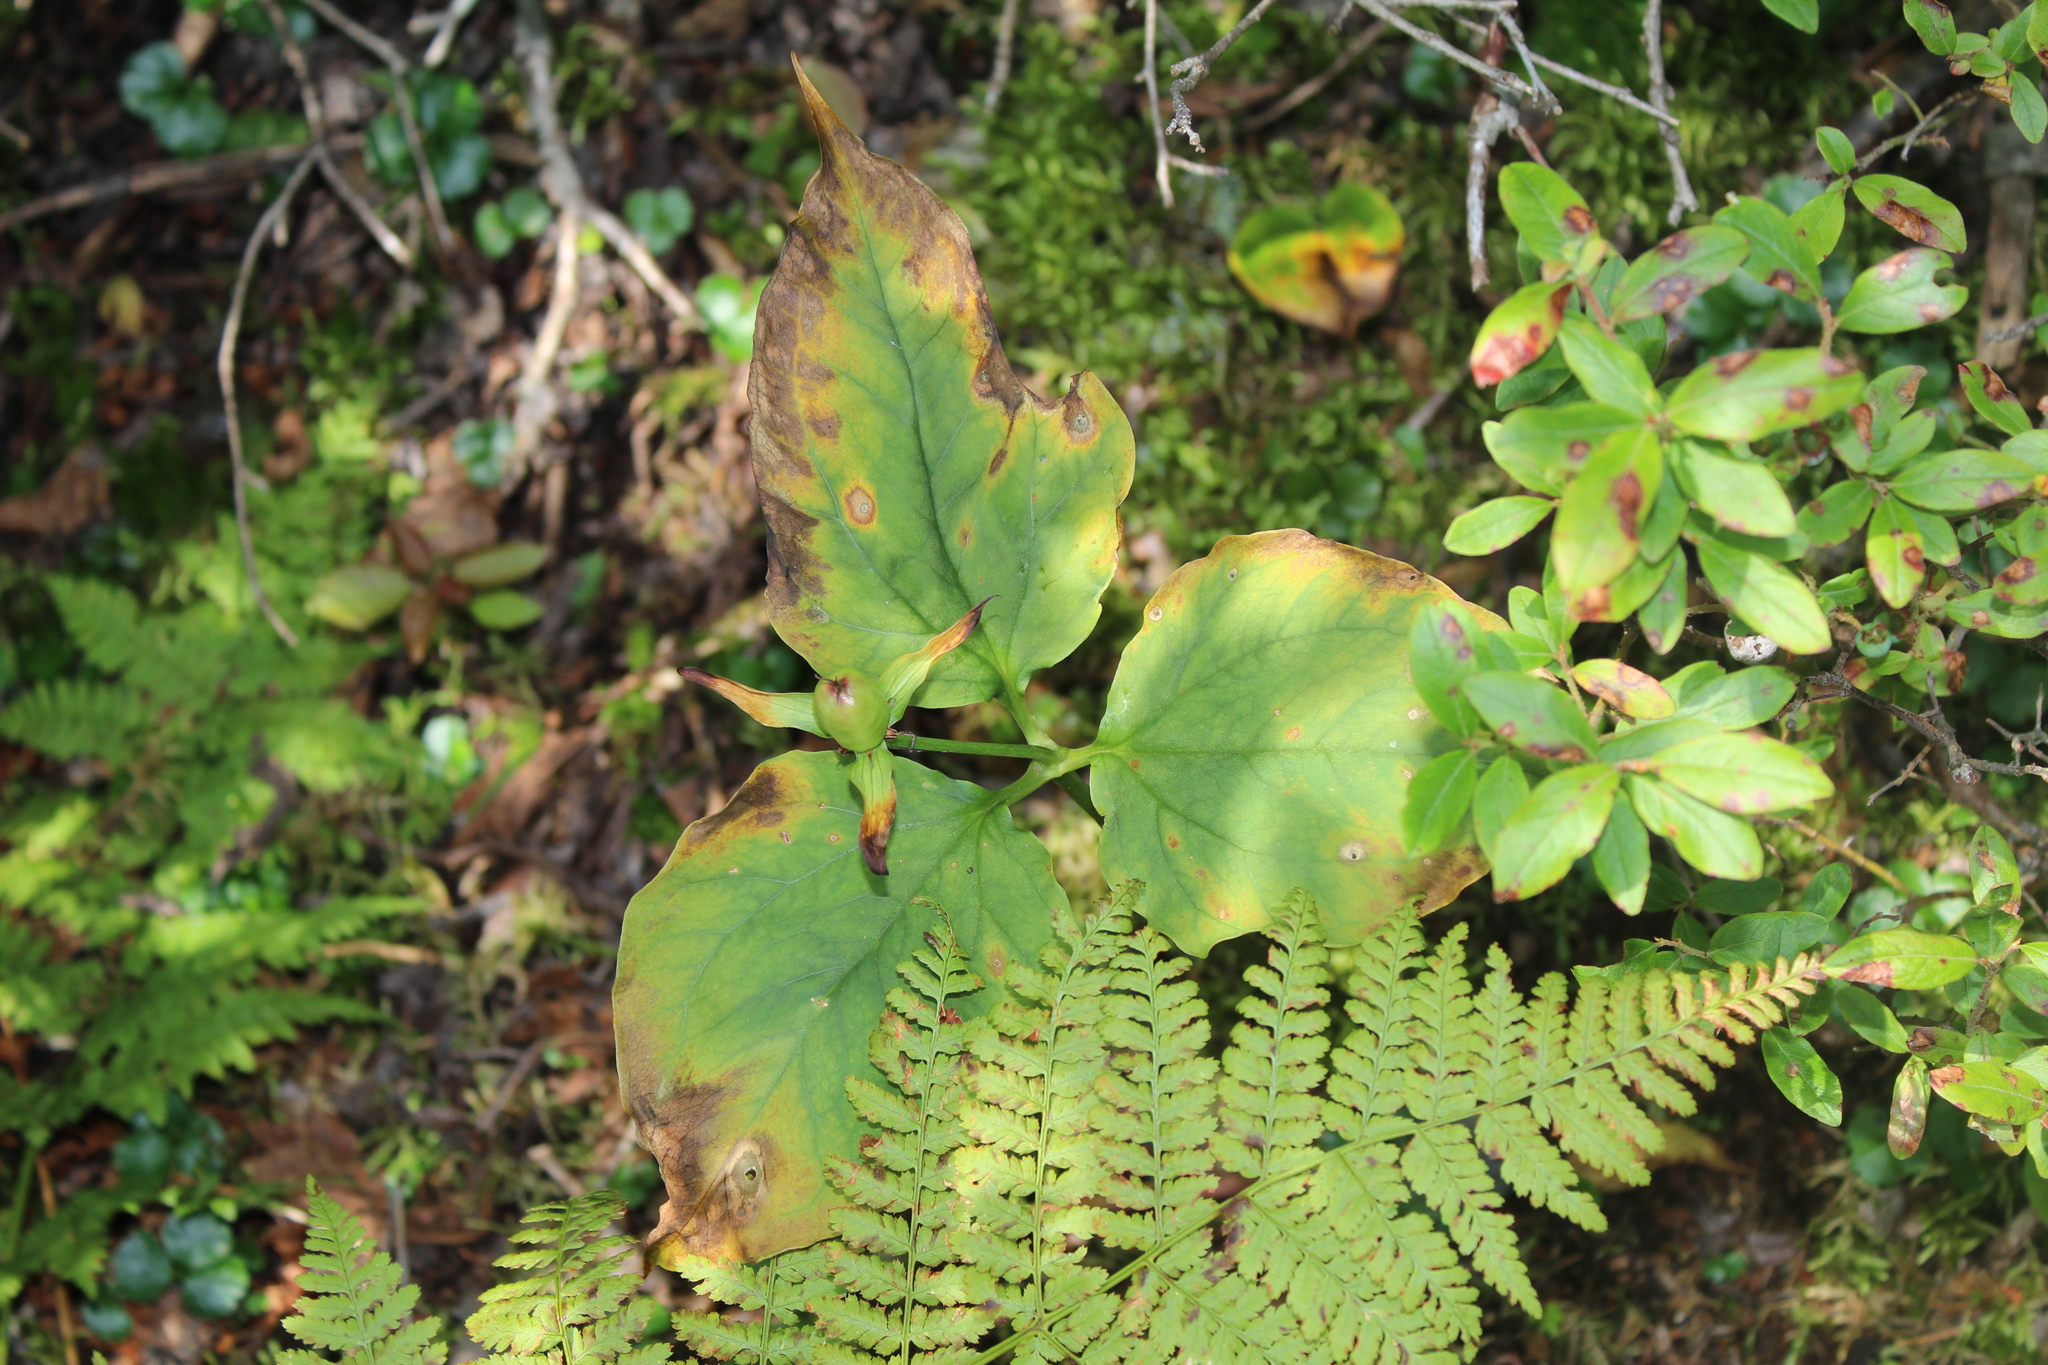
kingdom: Plantae
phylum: Tracheophyta
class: Liliopsida
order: Liliales
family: Melanthiaceae
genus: Trillium
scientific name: Trillium undulatum
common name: Paint trillium
